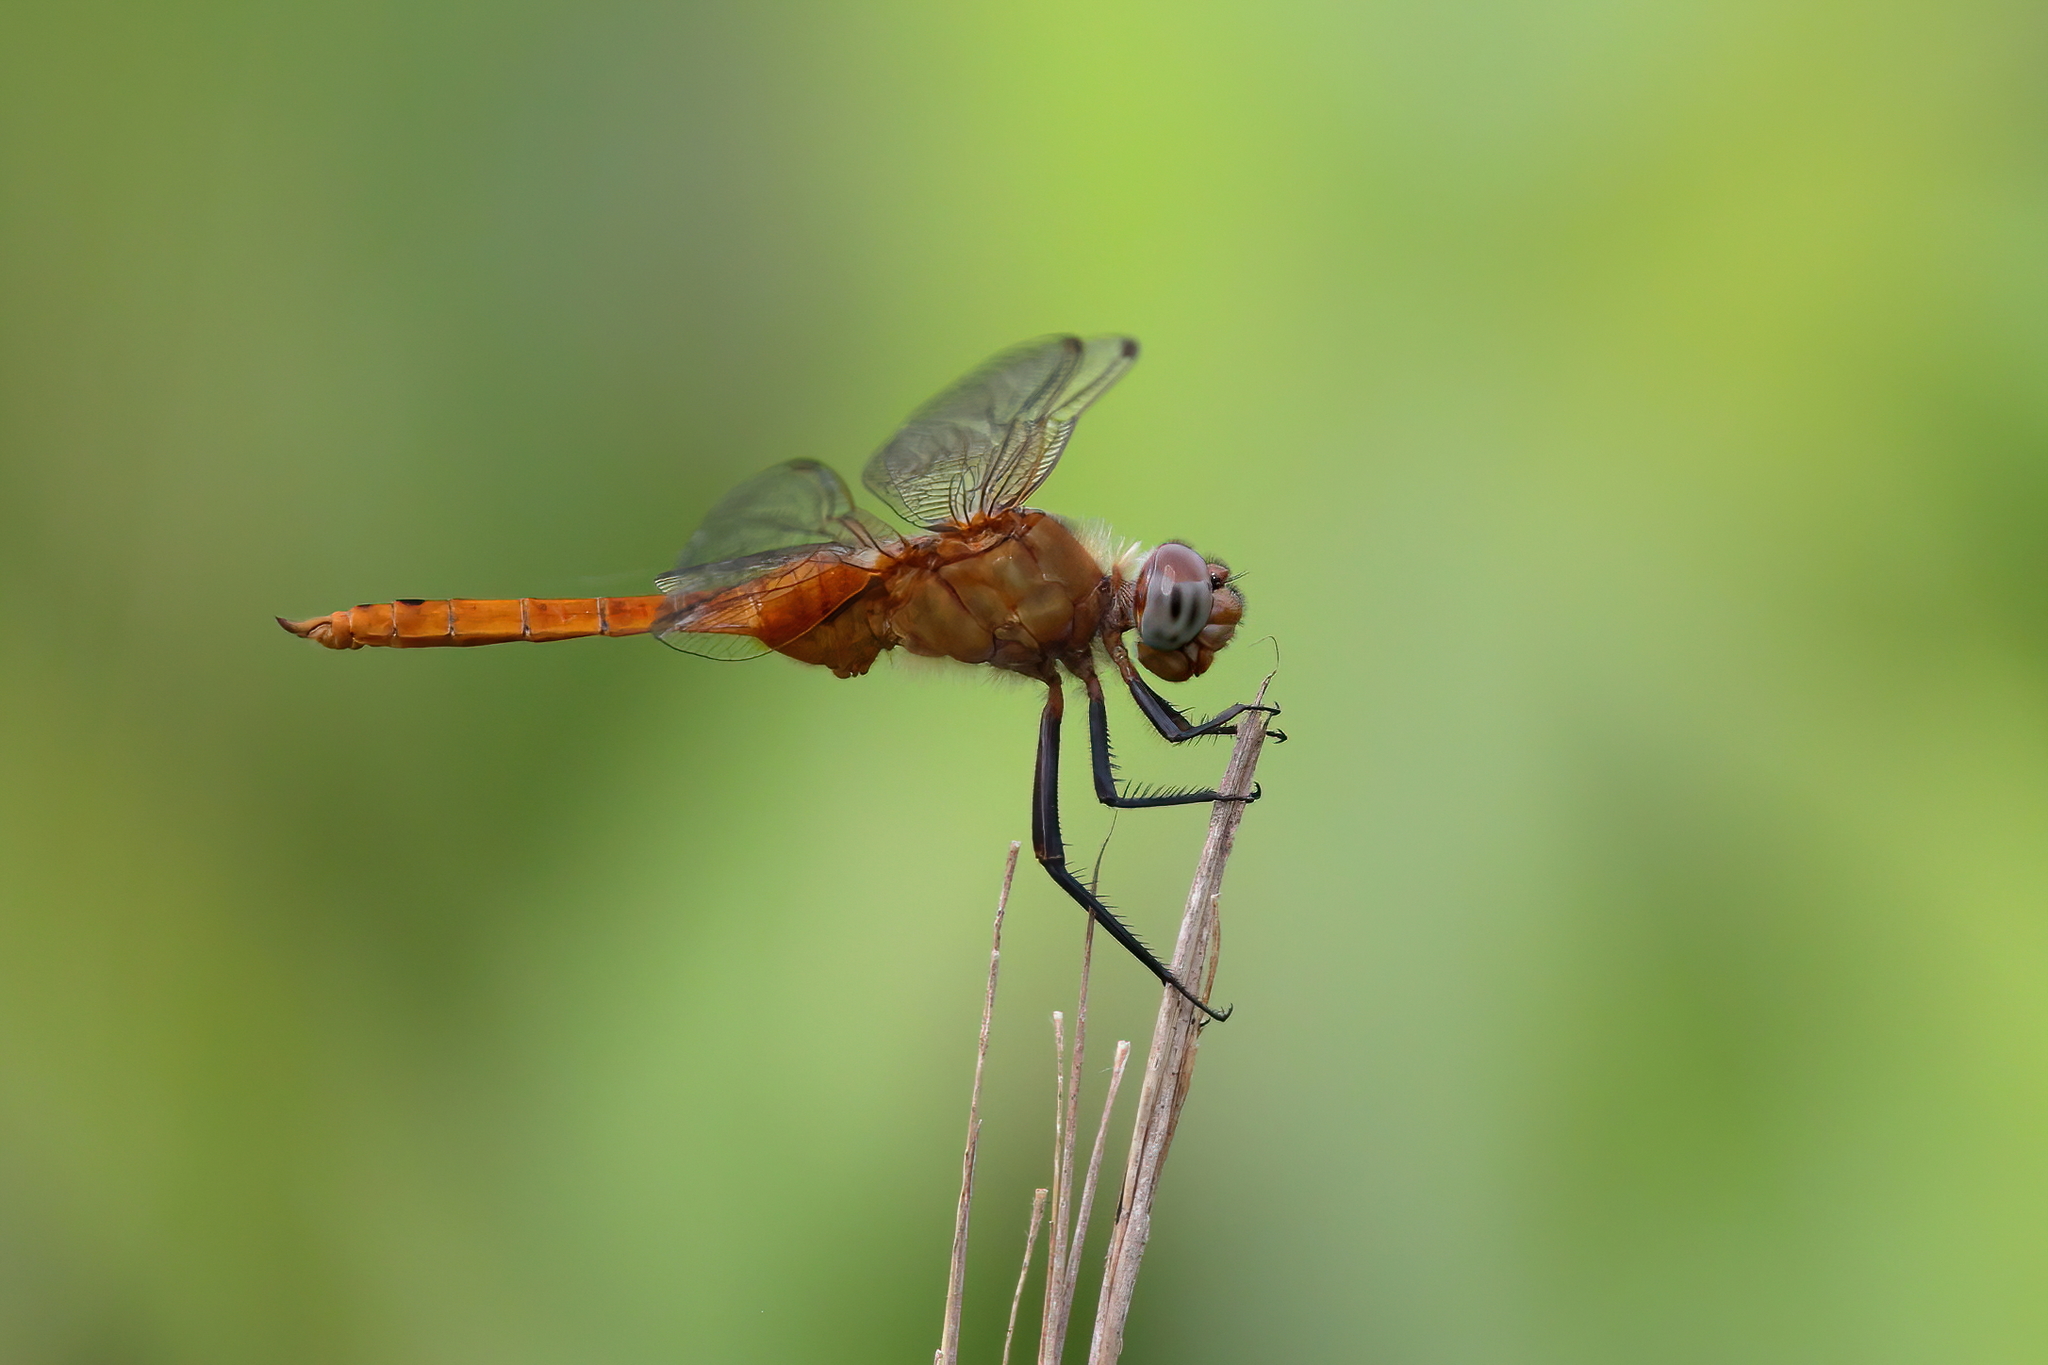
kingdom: Animalia
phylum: Arthropoda
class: Insecta
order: Odonata
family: Libellulidae
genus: Brachymesia
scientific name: Brachymesia furcata
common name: Red-taled pennant
